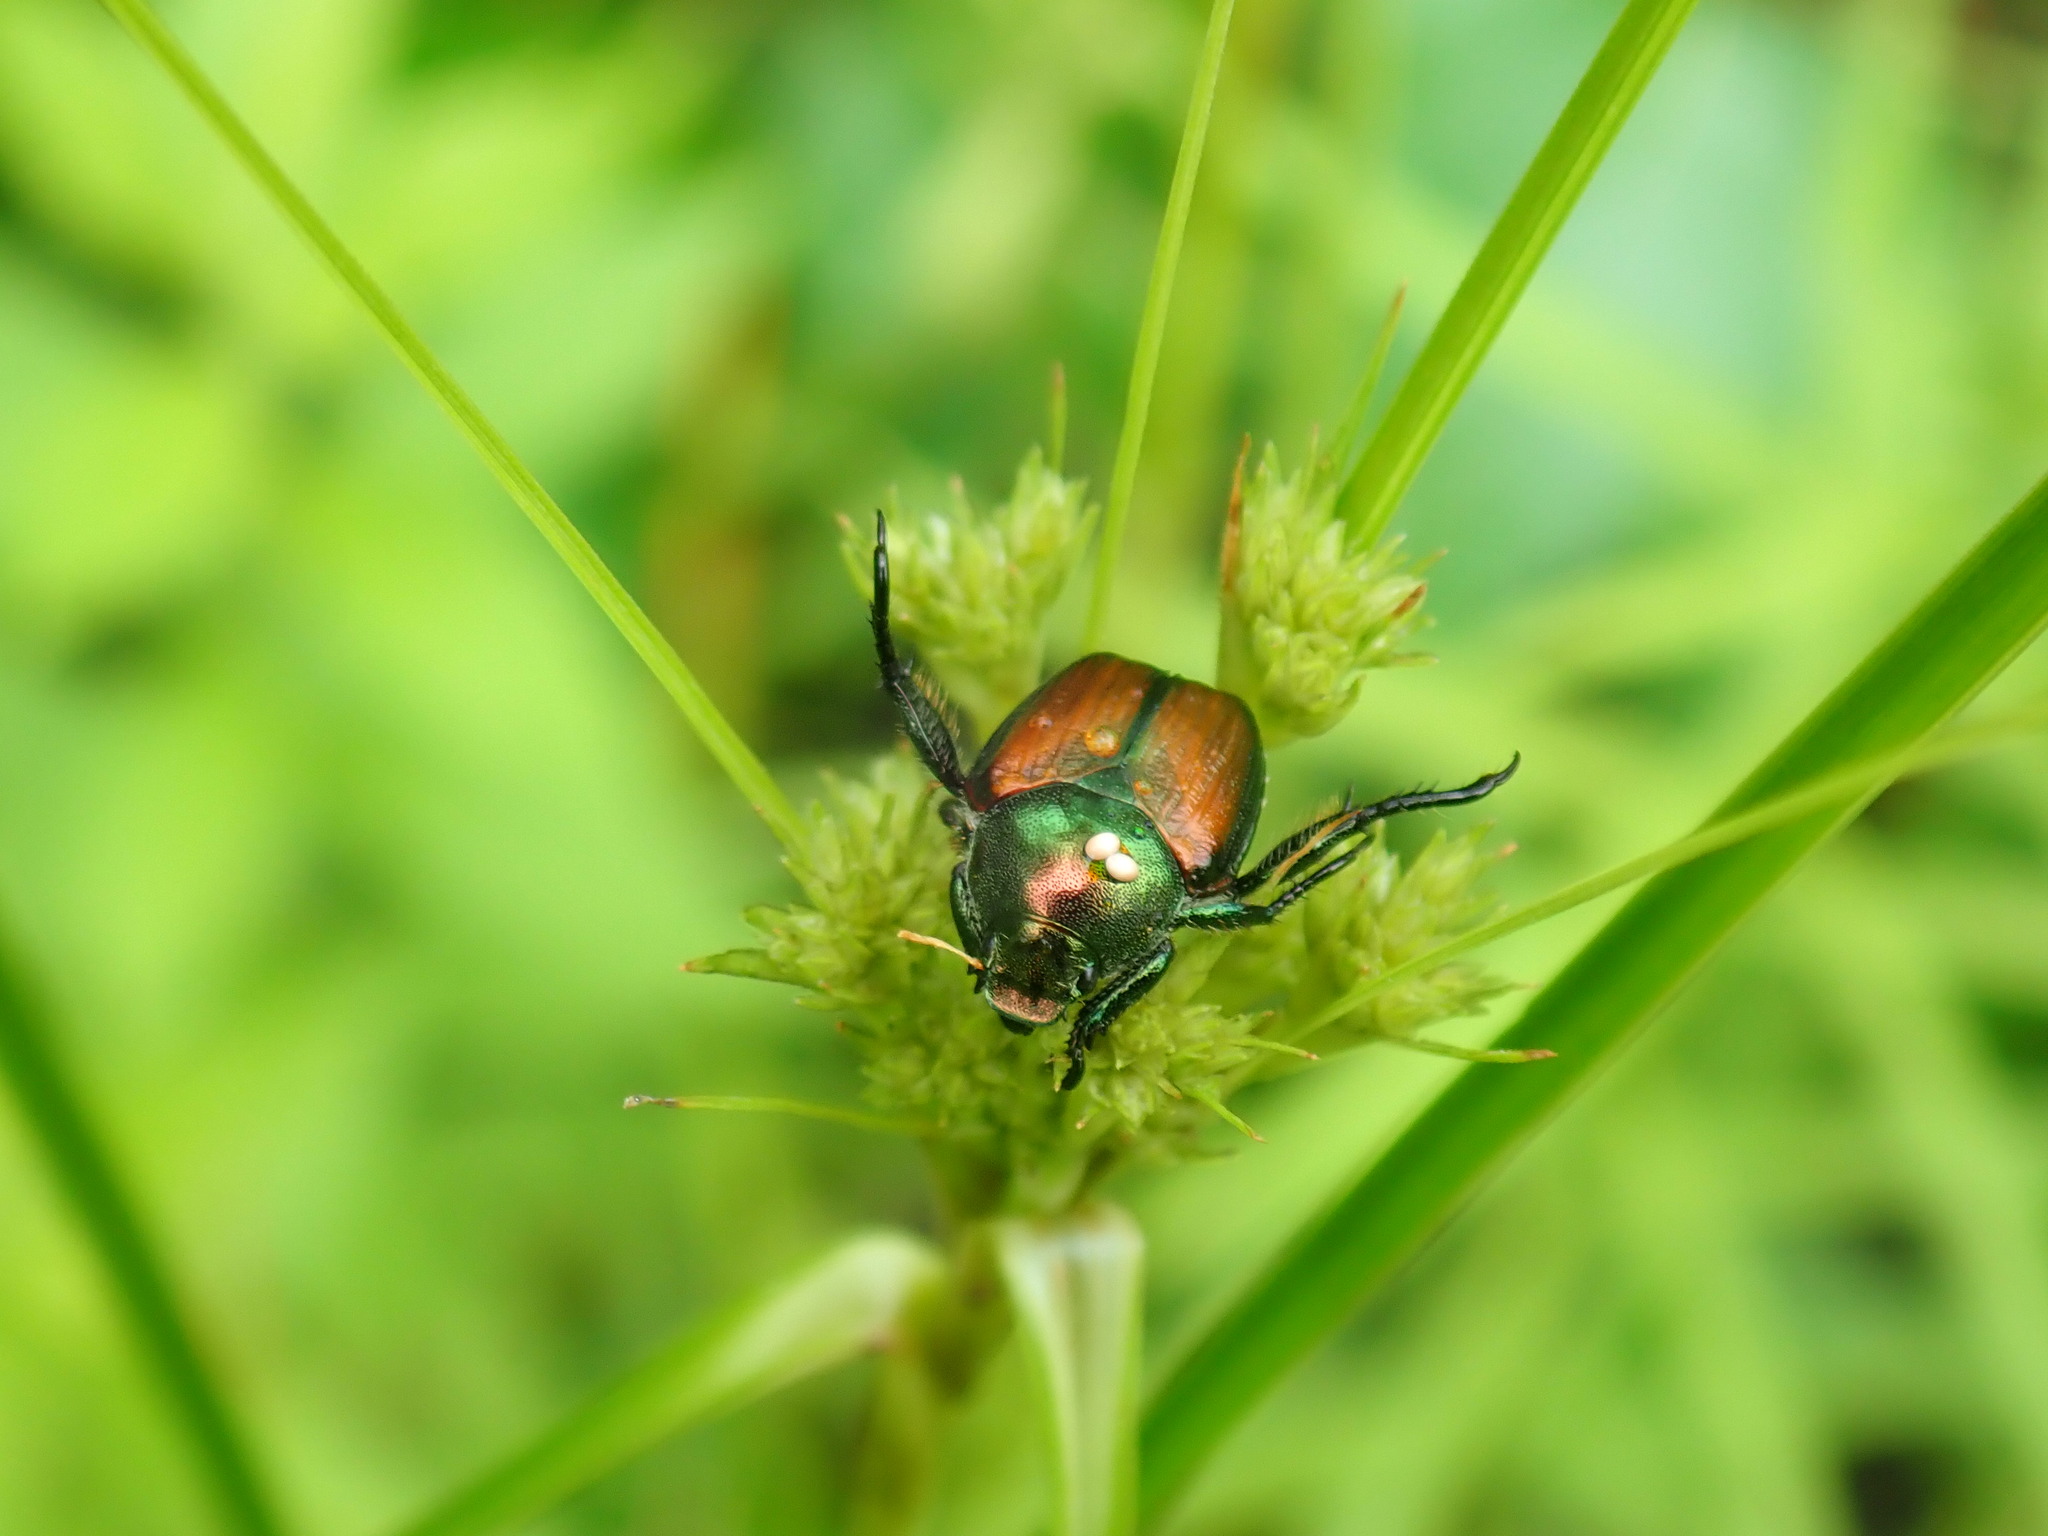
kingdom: Animalia
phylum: Arthropoda
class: Insecta
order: Diptera
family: Tachinidae
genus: Istocheta
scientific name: Istocheta aldrichi
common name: Parasitic wasp
